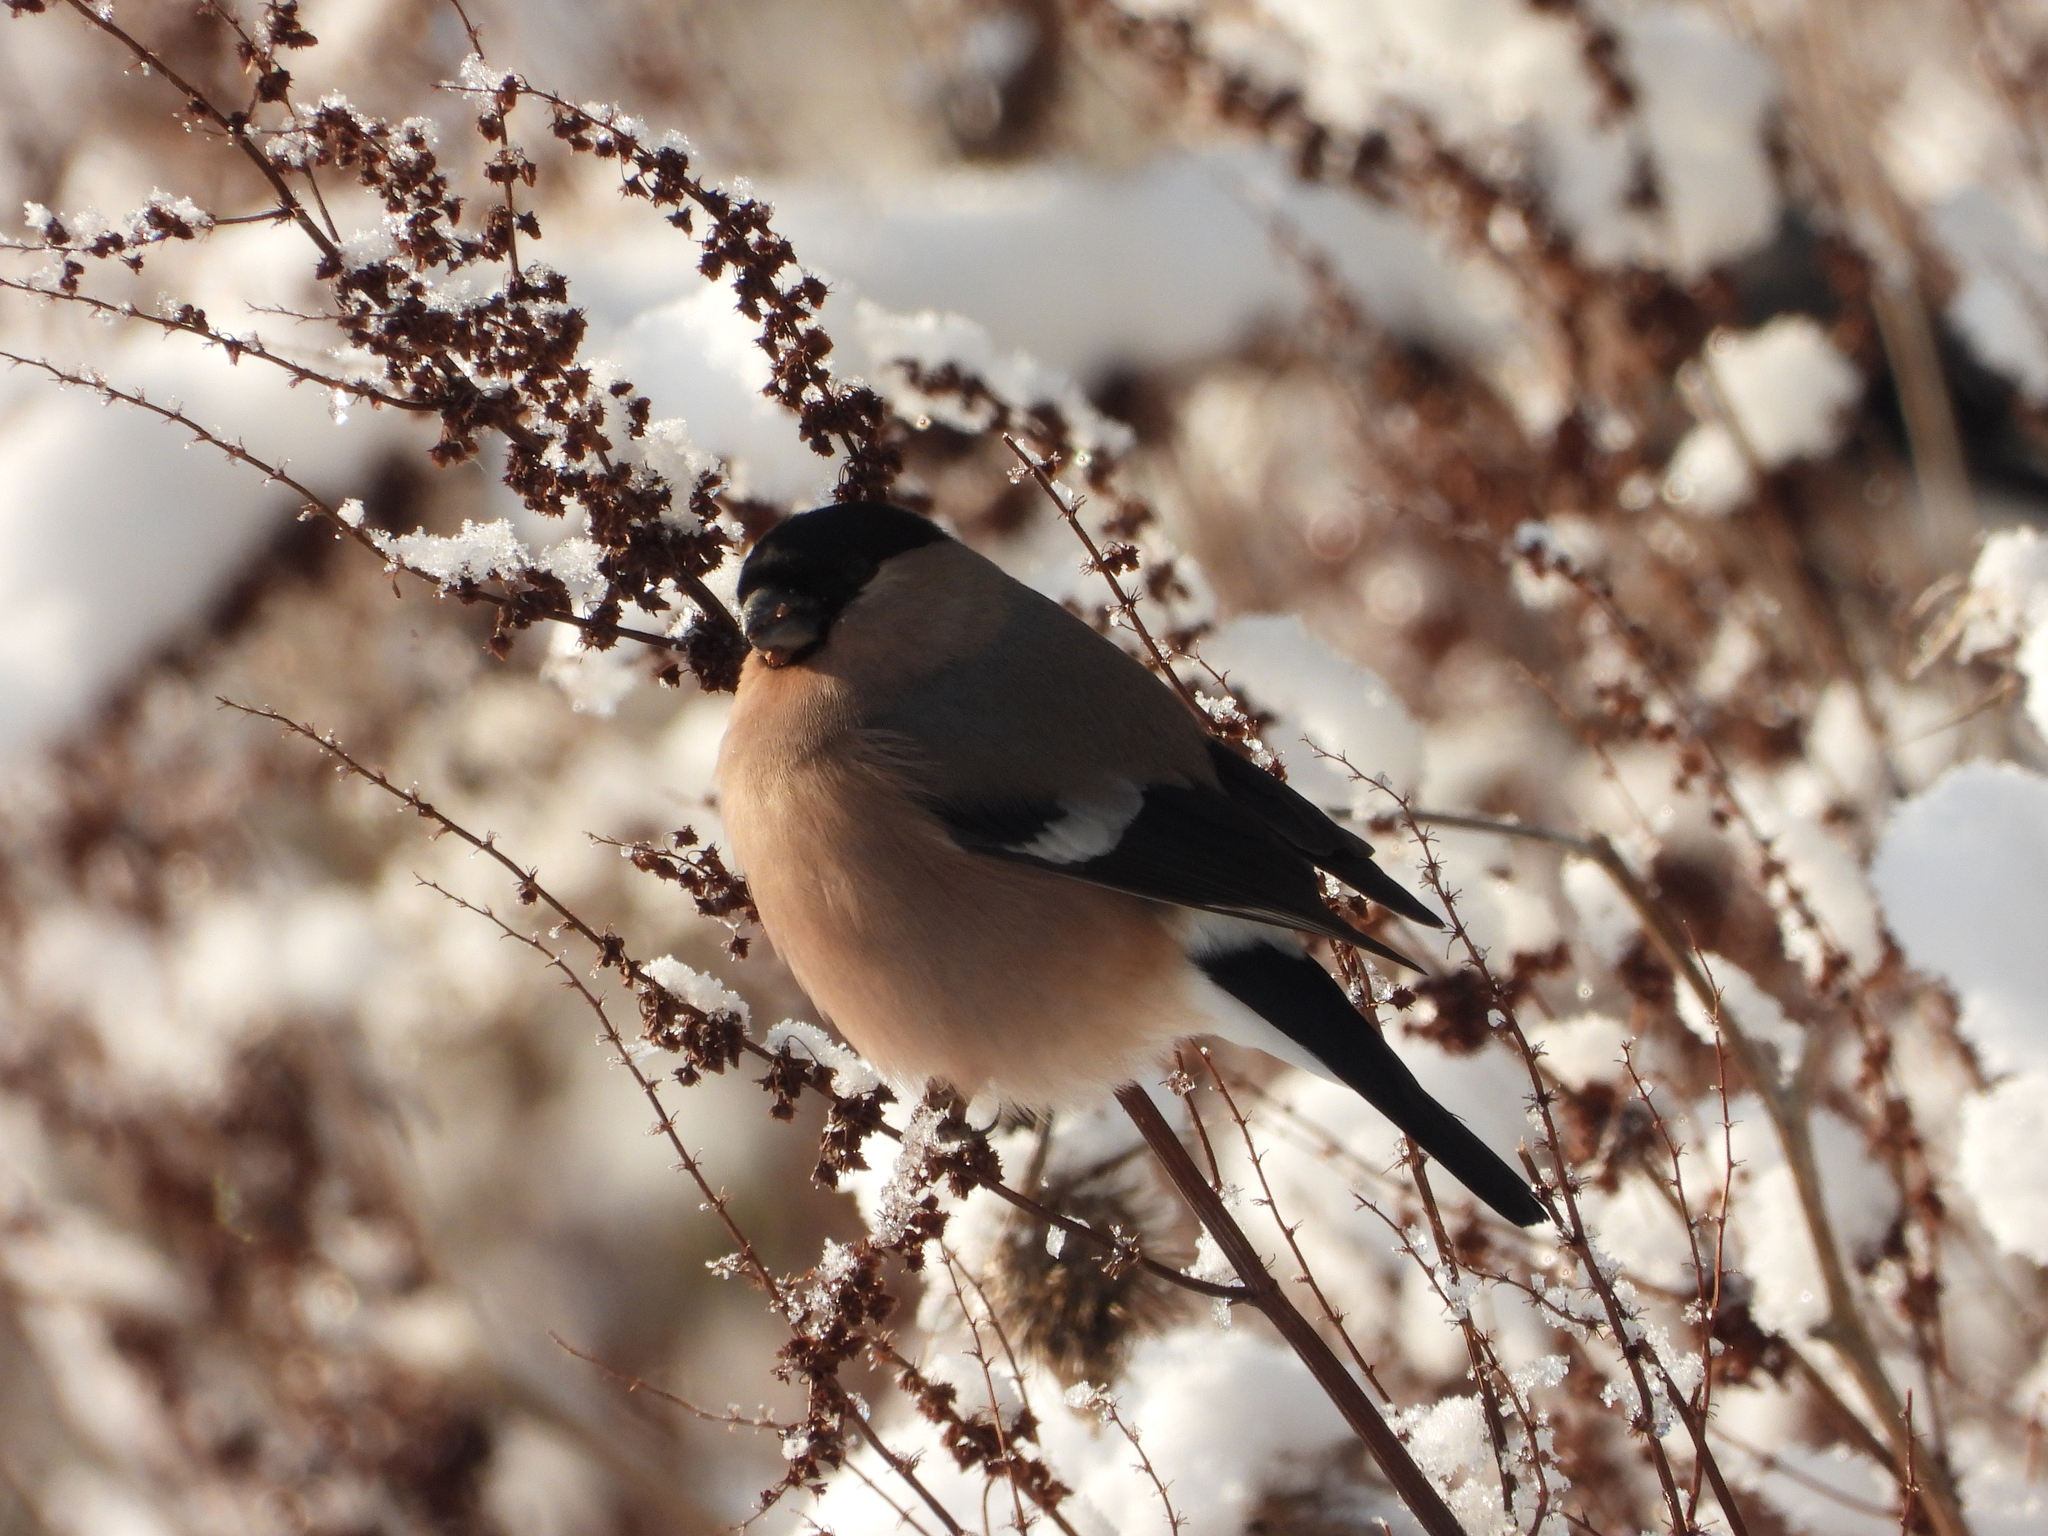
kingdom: Animalia
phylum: Chordata
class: Aves
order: Passeriformes
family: Fringillidae
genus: Pyrrhula
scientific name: Pyrrhula pyrrhula
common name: Eurasian bullfinch
